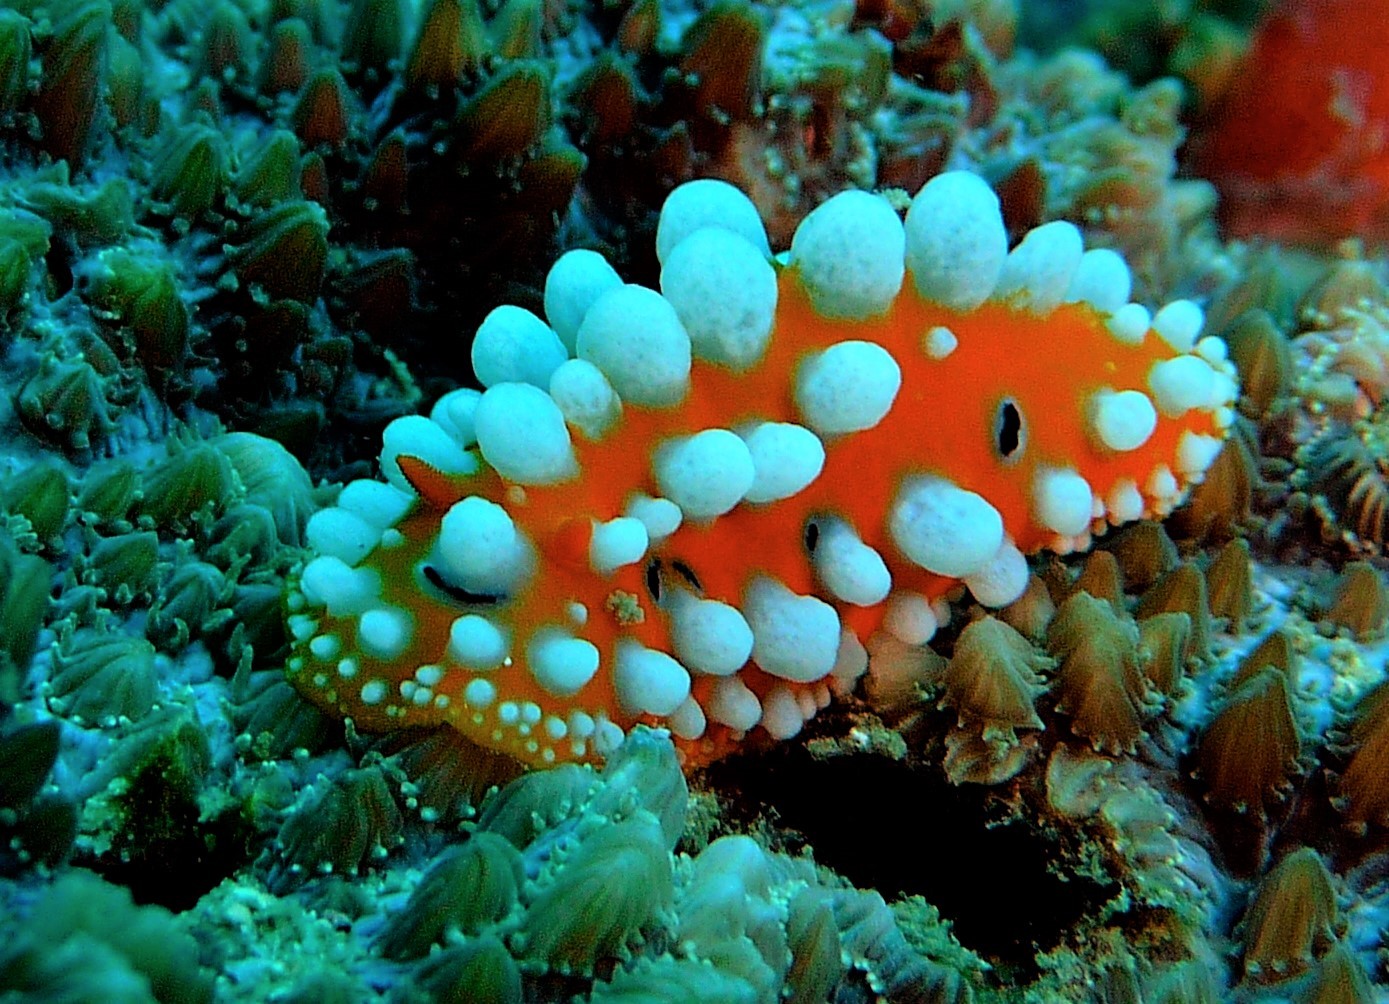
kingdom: Animalia
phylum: Mollusca
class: Gastropoda
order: Nudibranchia
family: Phyllidiidae
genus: Phyllidia
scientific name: Phyllidia ocellata
